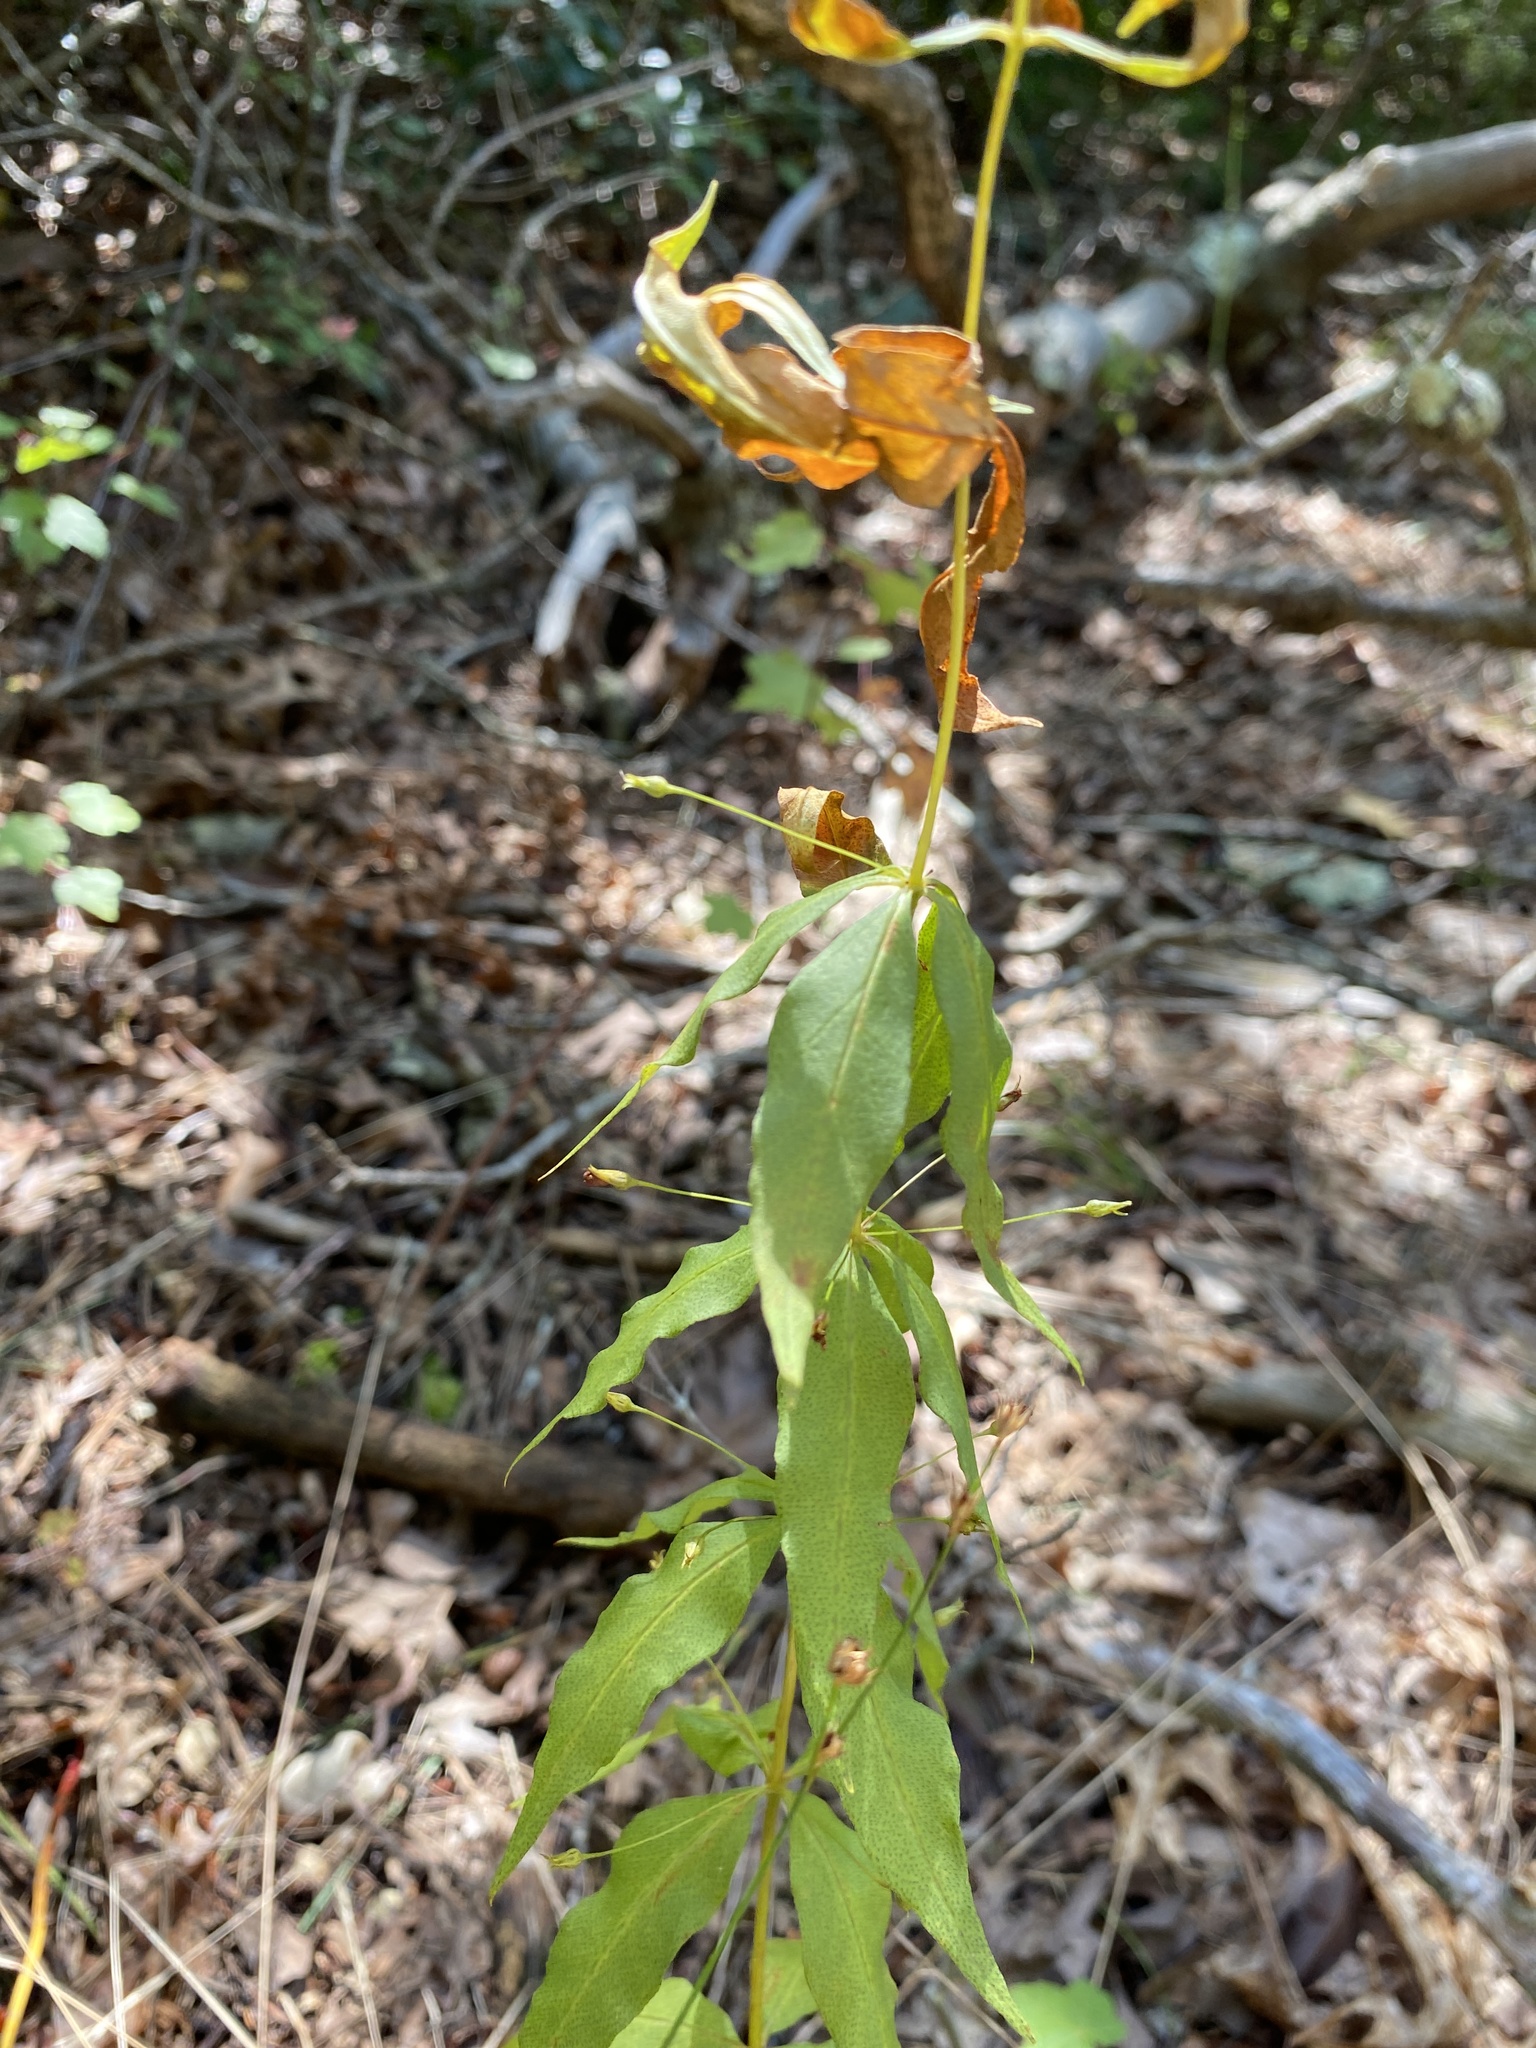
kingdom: Plantae
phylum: Tracheophyta
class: Magnoliopsida
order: Ericales
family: Primulaceae
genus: Lysimachia
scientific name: Lysimachia quadrifolia
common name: Whorled loosestrife
